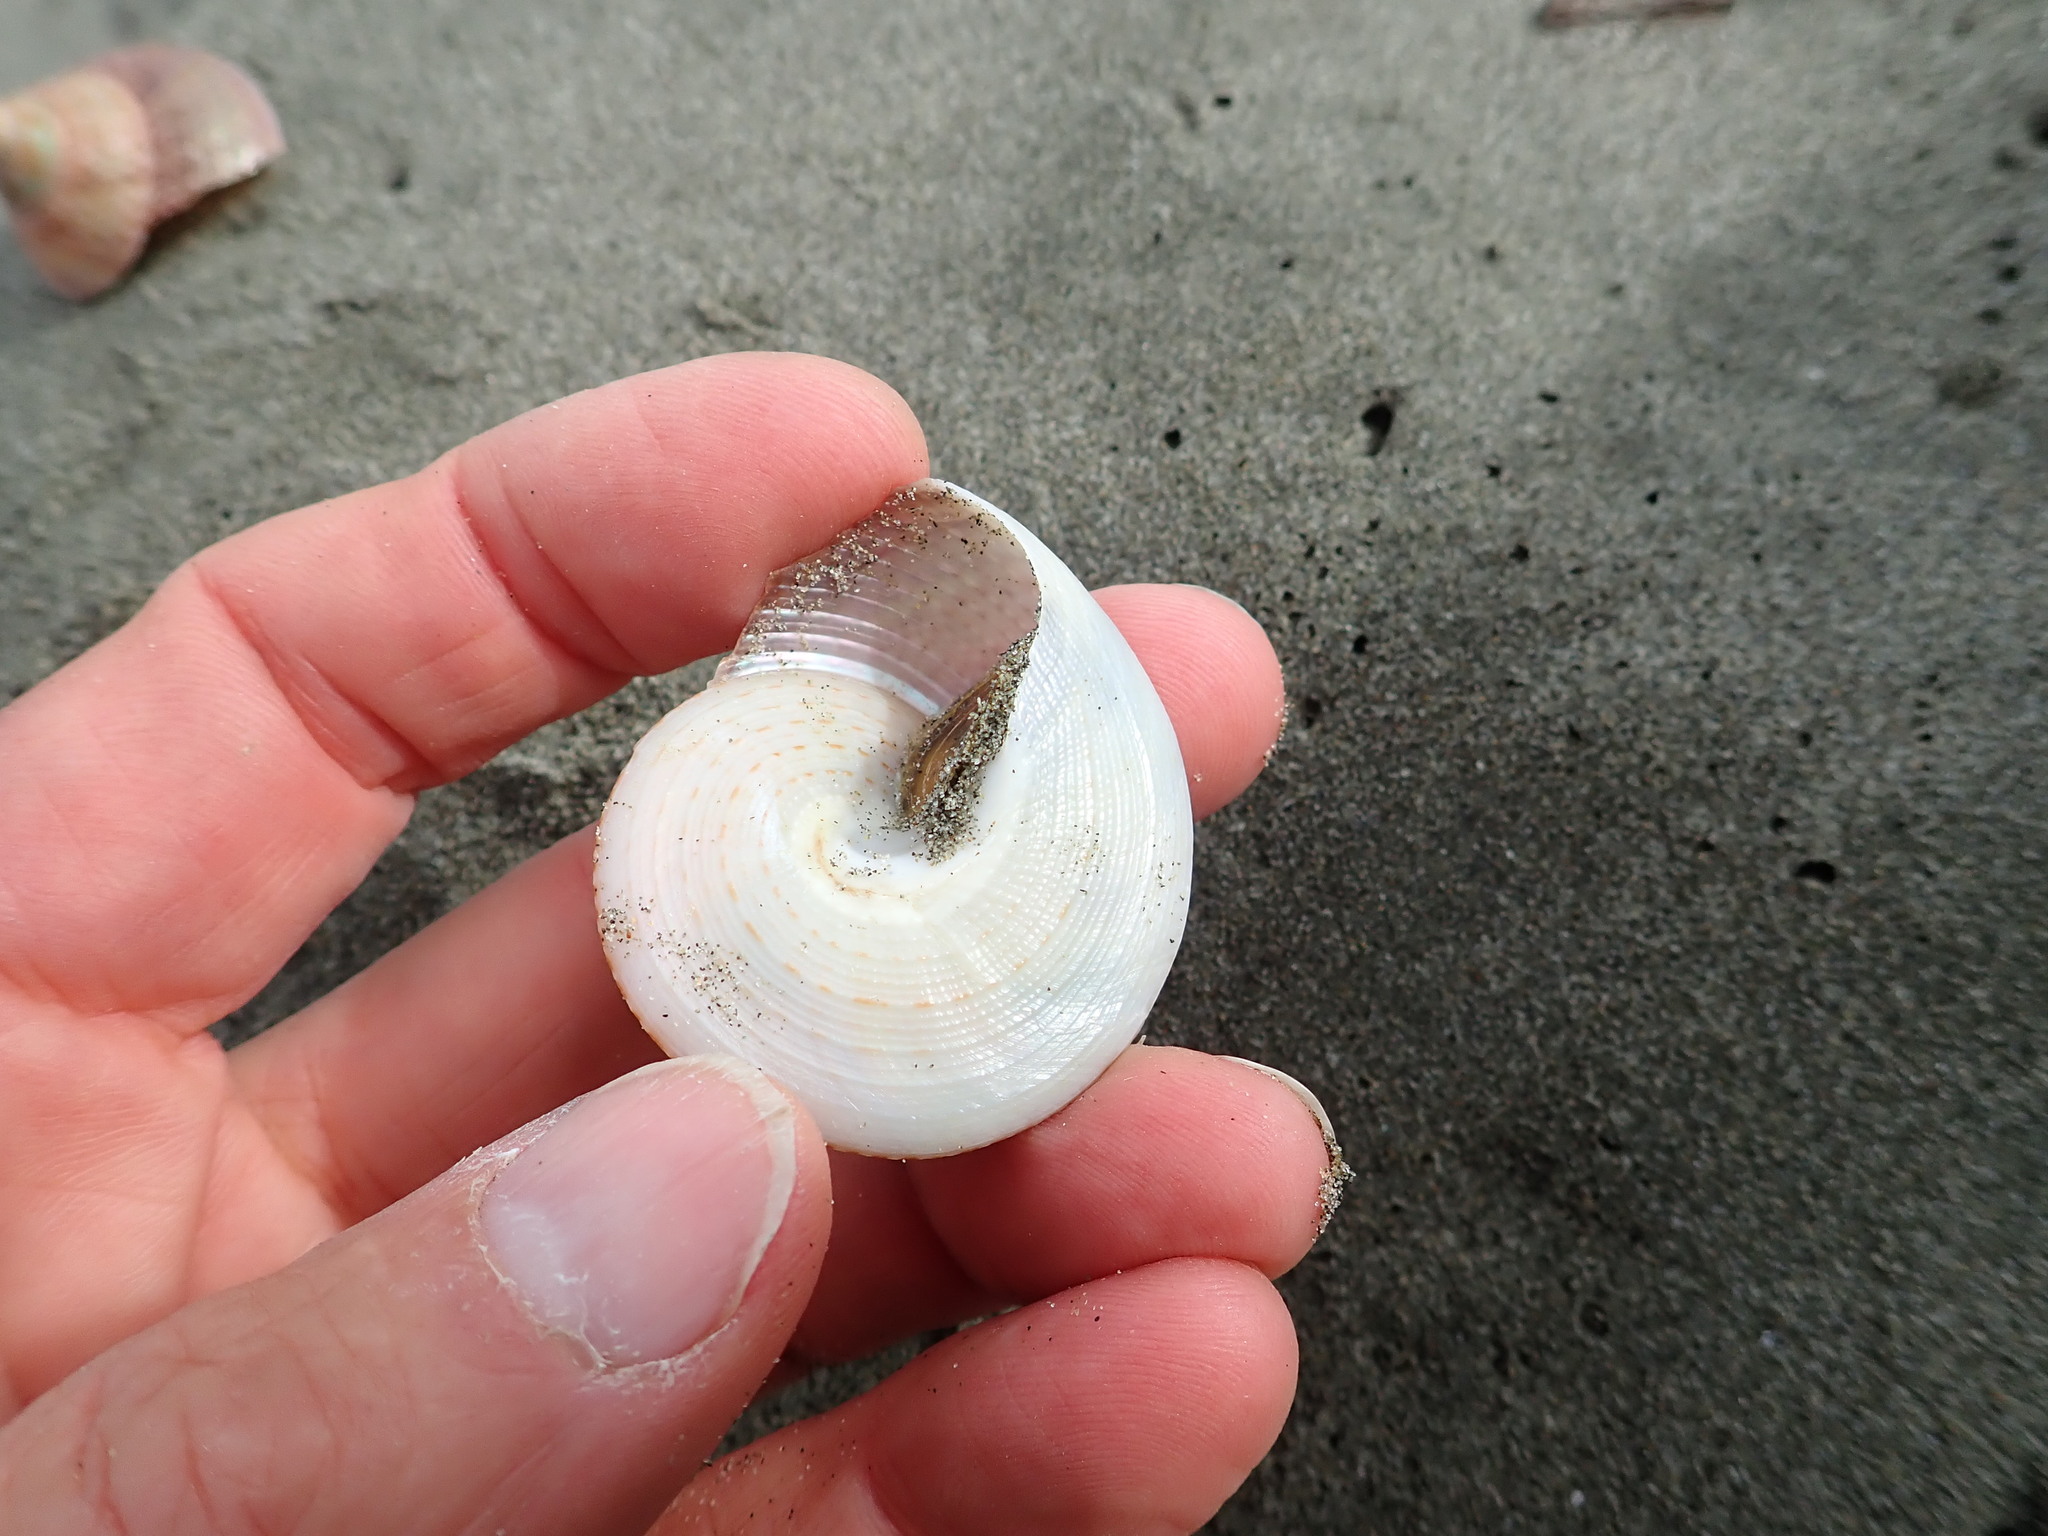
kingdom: Animalia
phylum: Mollusca
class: Gastropoda
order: Trochida
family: Calliostomatidae
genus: Maurea
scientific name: Maurea selecta
